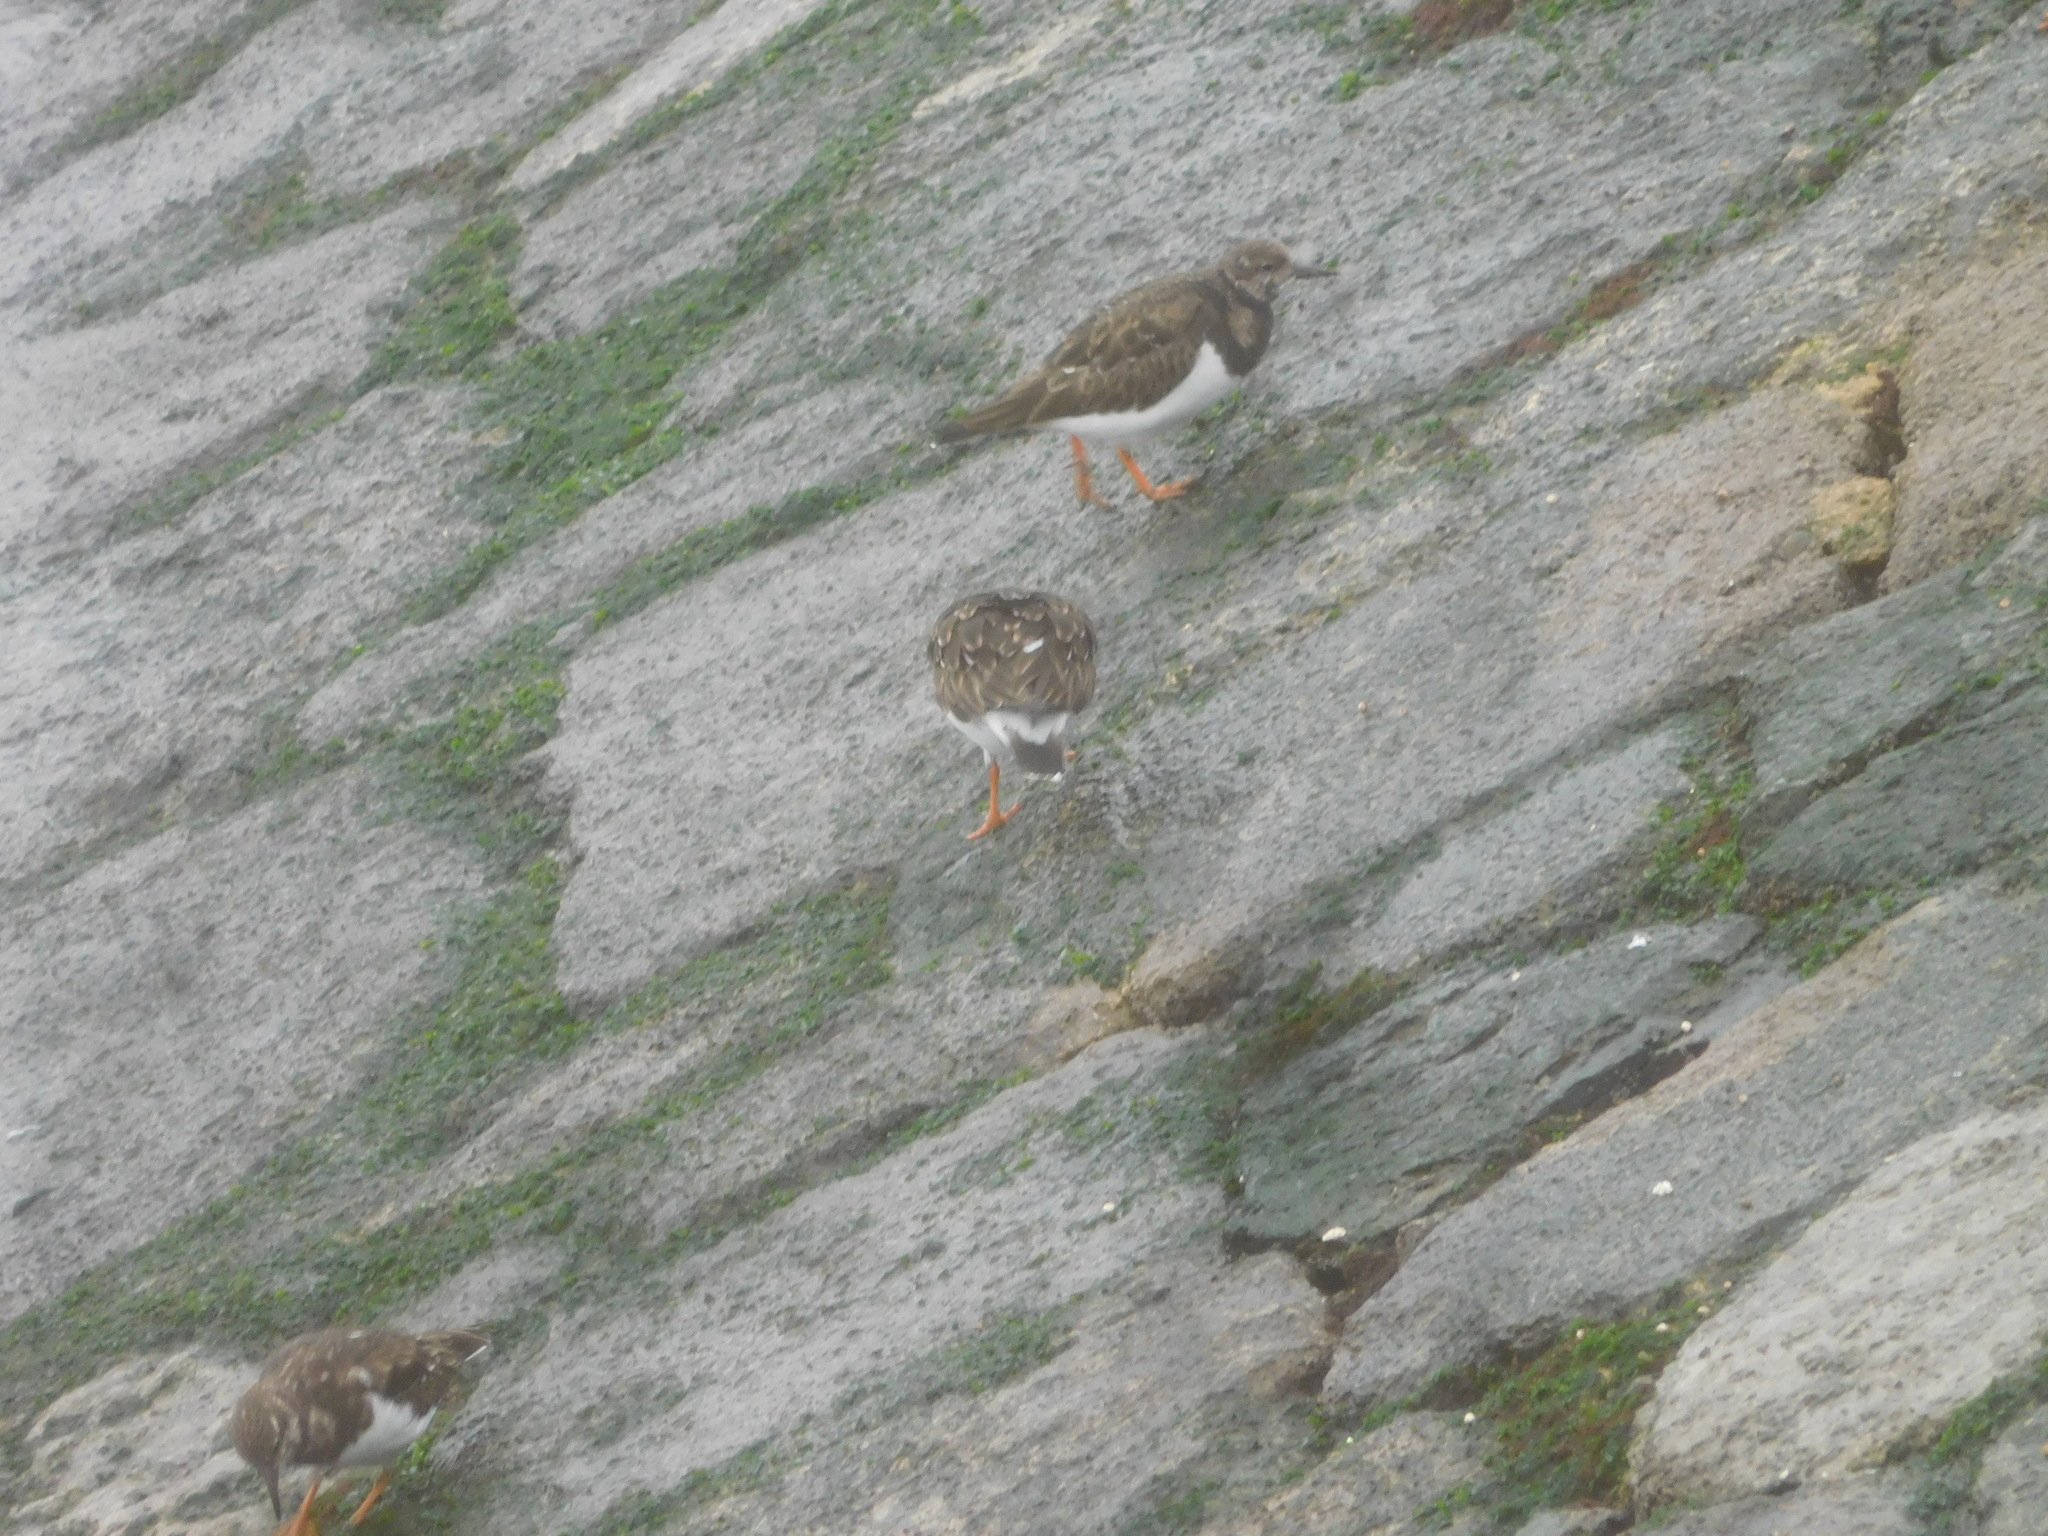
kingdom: Animalia
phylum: Chordata
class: Aves
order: Charadriiformes
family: Scolopacidae
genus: Arenaria
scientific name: Arenaria interpres
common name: Ruddy turnstone
